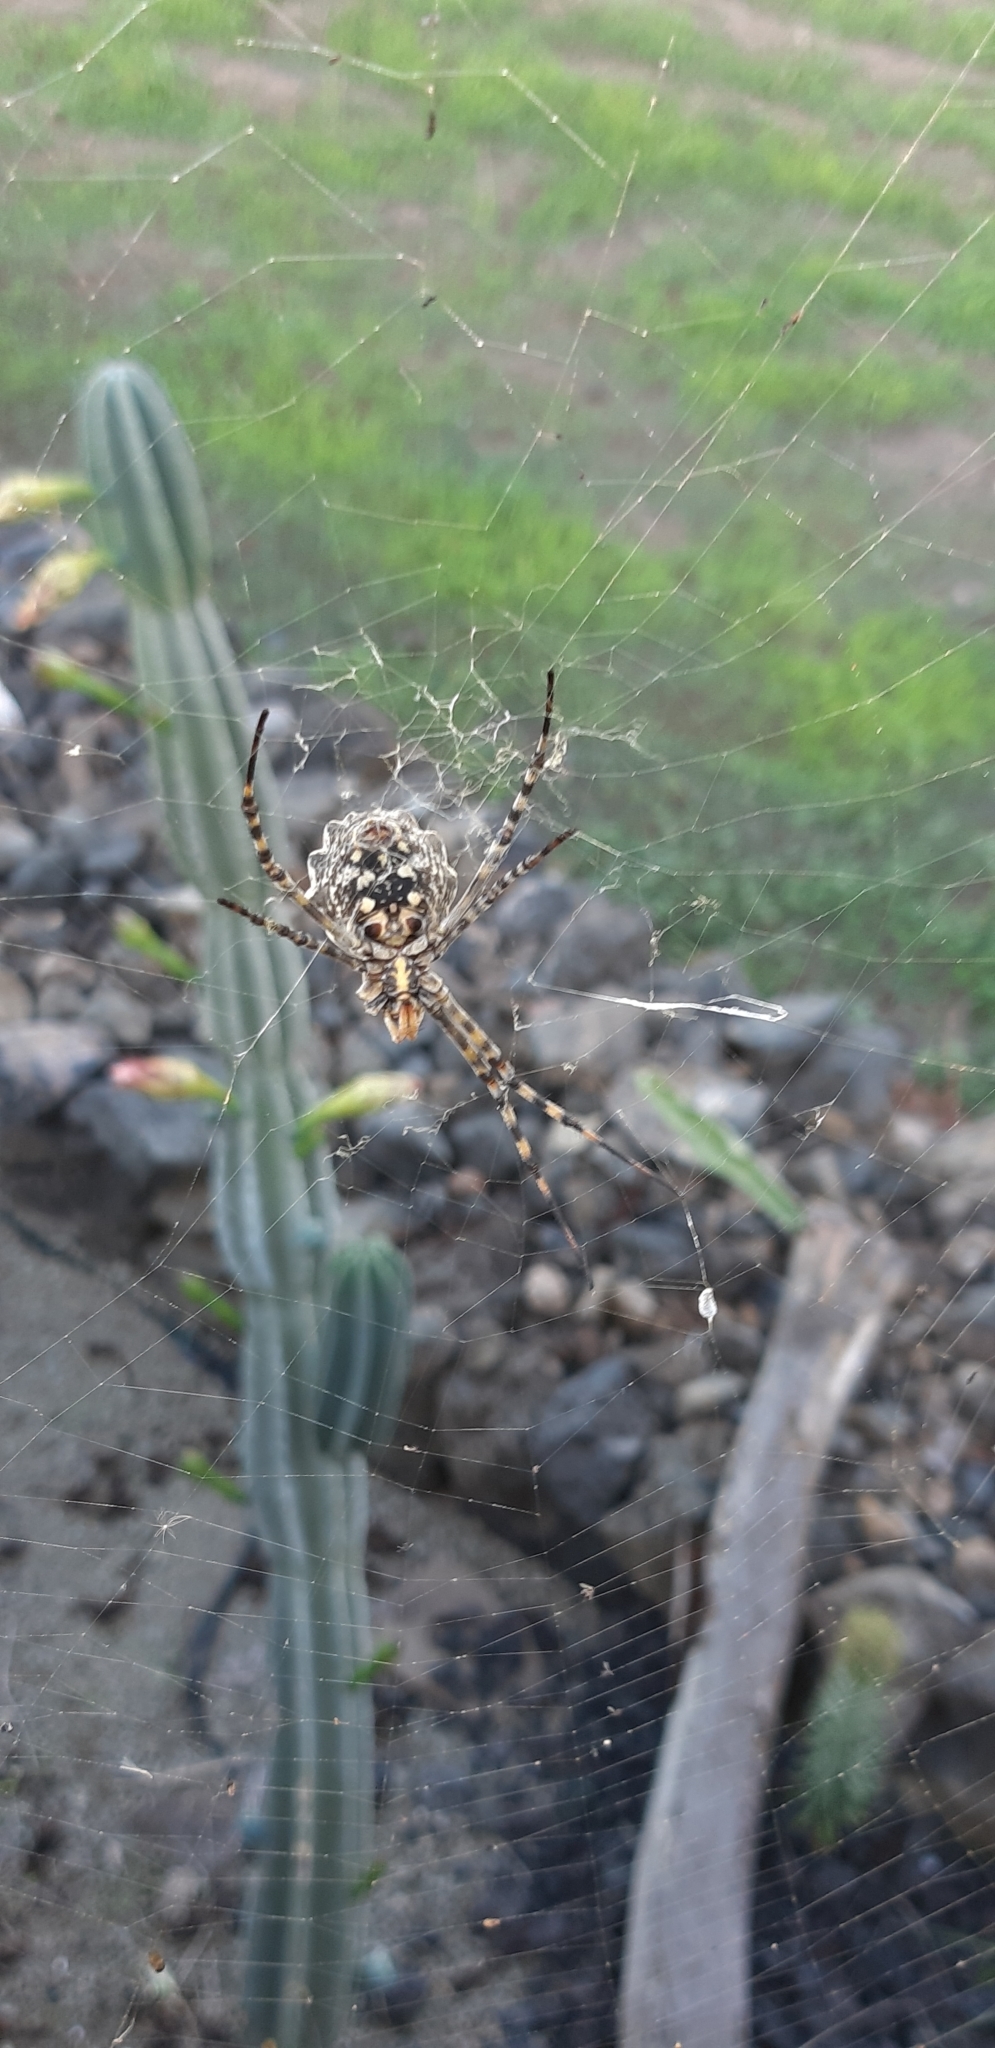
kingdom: Animalia
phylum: Arthropoda
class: Arachnida
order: Araneae
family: Araneidae
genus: Argiope
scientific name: Argiope lobata
